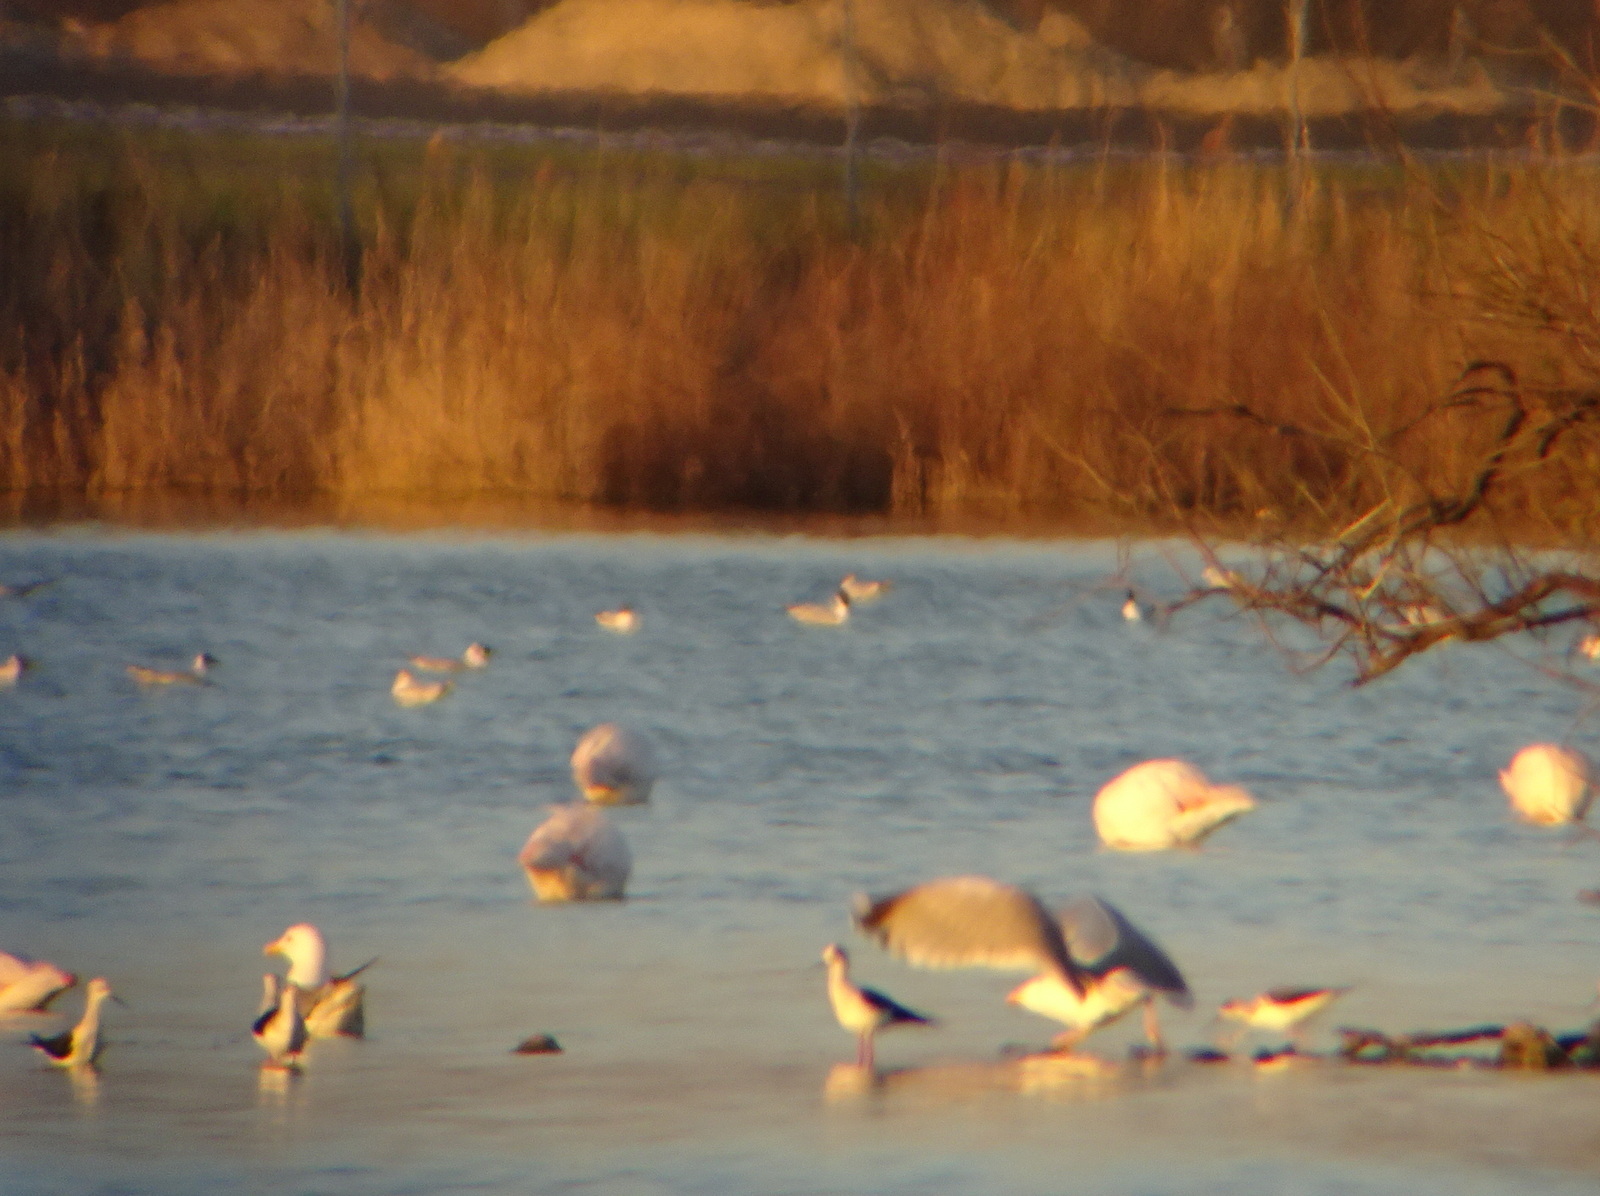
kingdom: Animalia
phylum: Chordata
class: Aves
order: Charadriiformes
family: Recurvirostridae
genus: Himantopus
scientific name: Himantopus himantopus
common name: Black-winged stilt
